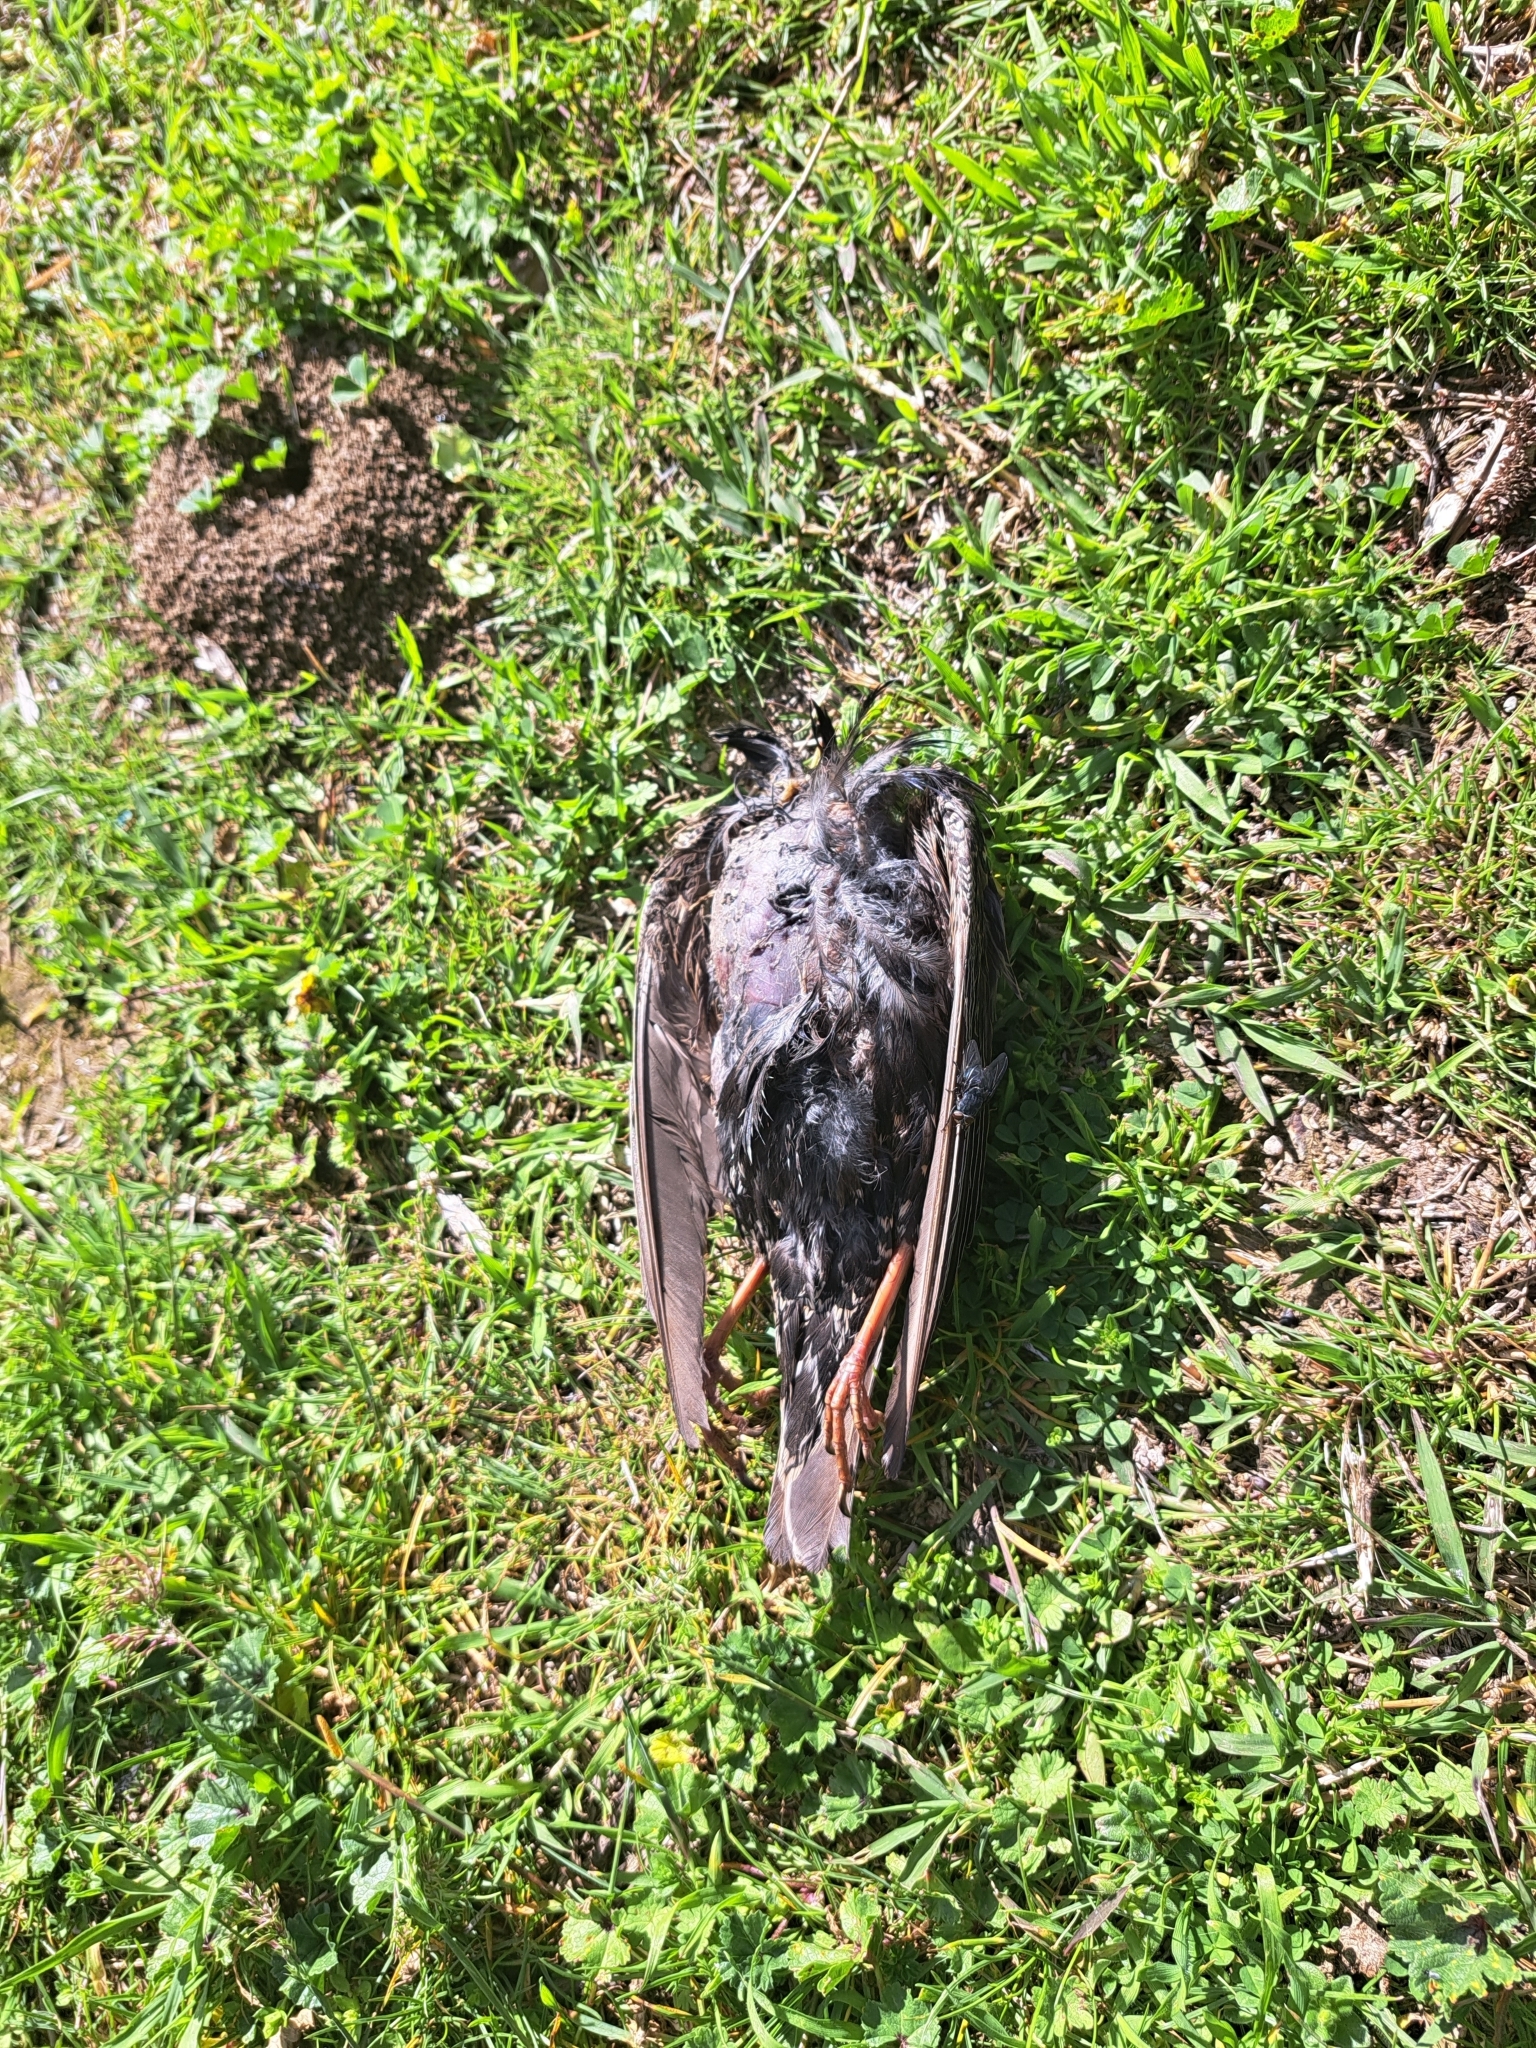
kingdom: Animalia
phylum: Chordata
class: Aves
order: Passeriformes
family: Sturnidae
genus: Sturnus
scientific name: Sturnus vulgaris
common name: Common starling
